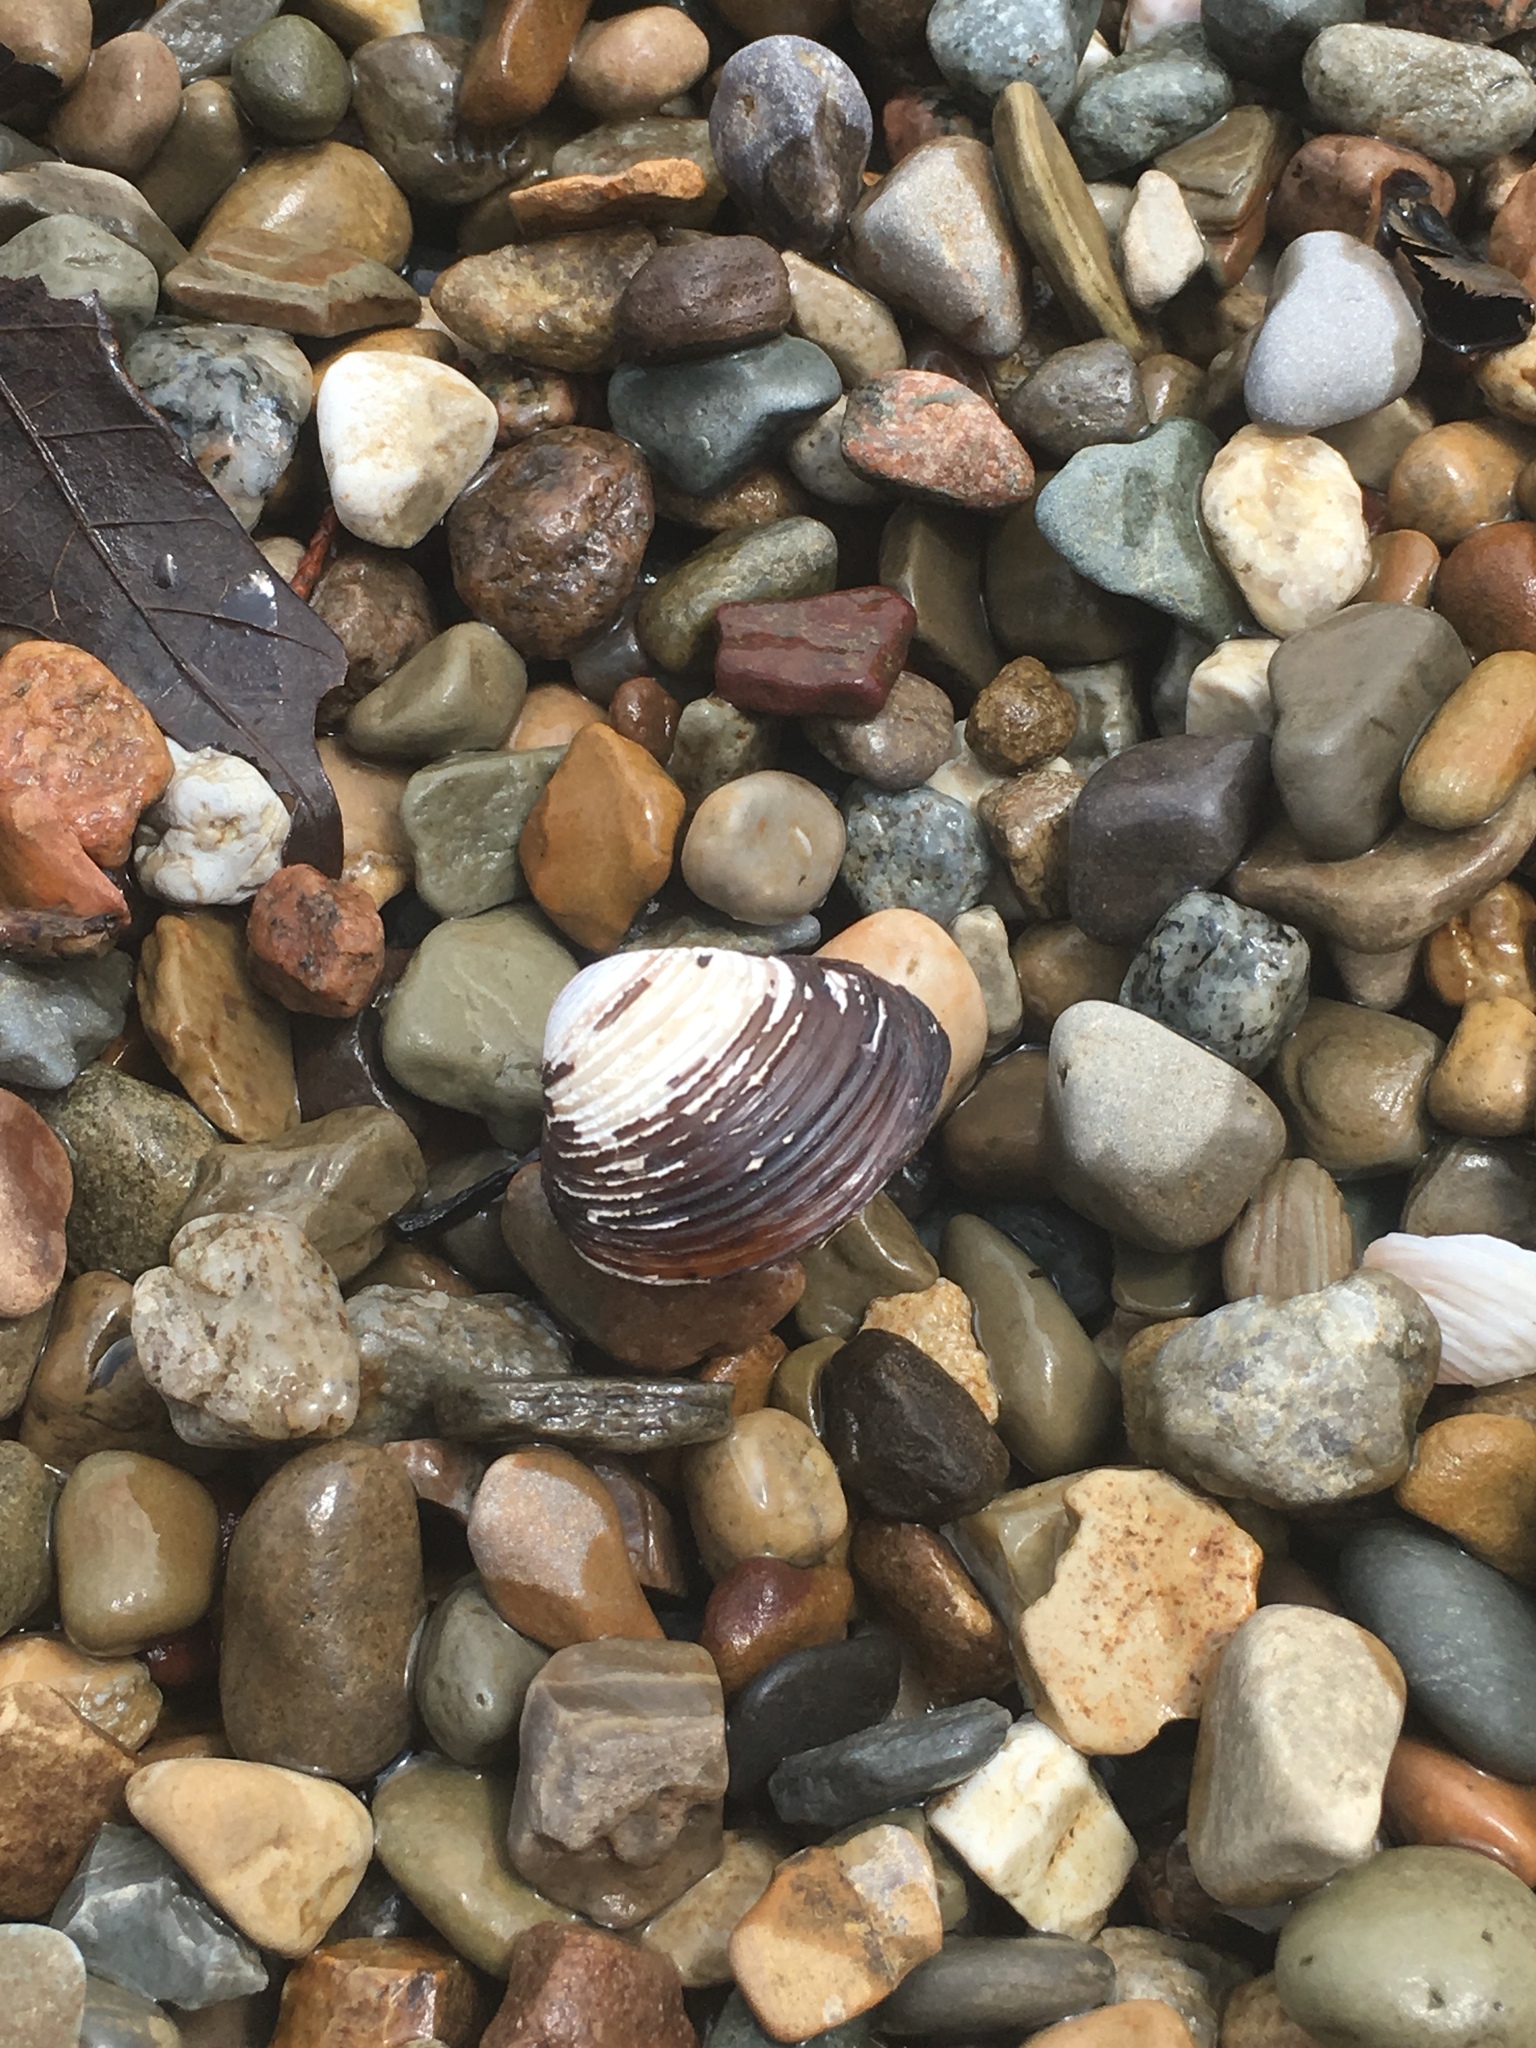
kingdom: Animalia
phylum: Mollusca
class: Bivalvia
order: Venerida
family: Cyrenidae
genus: Corbicula
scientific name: Corbicula fluminea
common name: Asian clam
